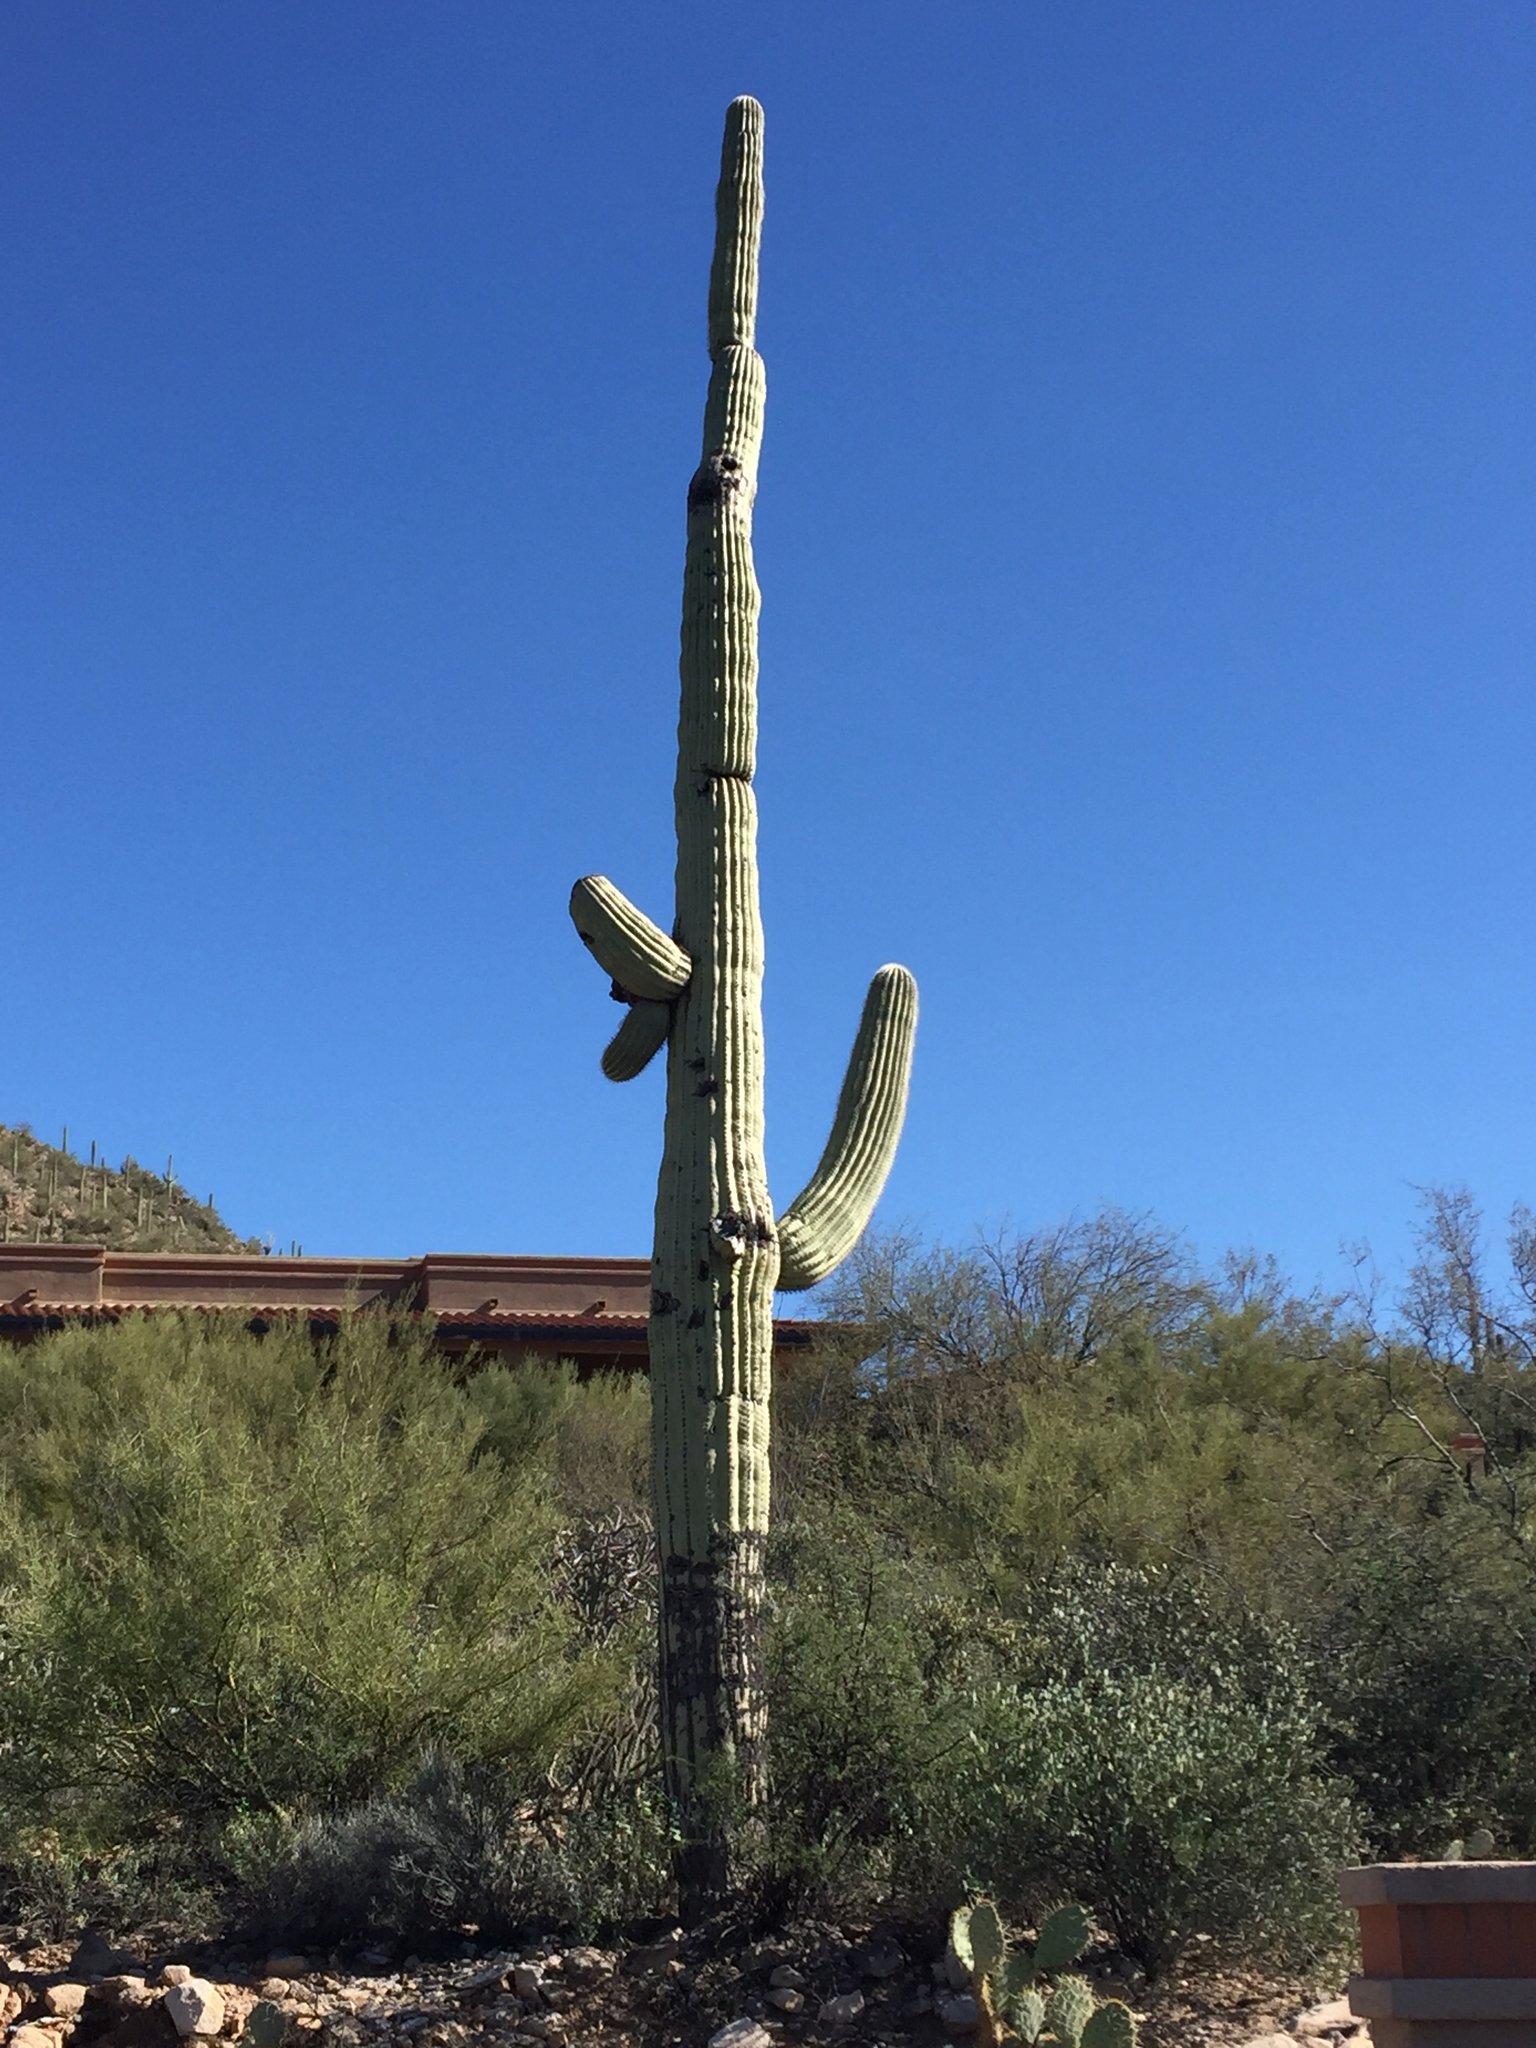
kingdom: Plantae
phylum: Tracheophyta
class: Magnoliopsida
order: Caryophyllales
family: Cactaceae
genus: Carnegiea
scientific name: Carnegiea gigantea
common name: Saguaro
